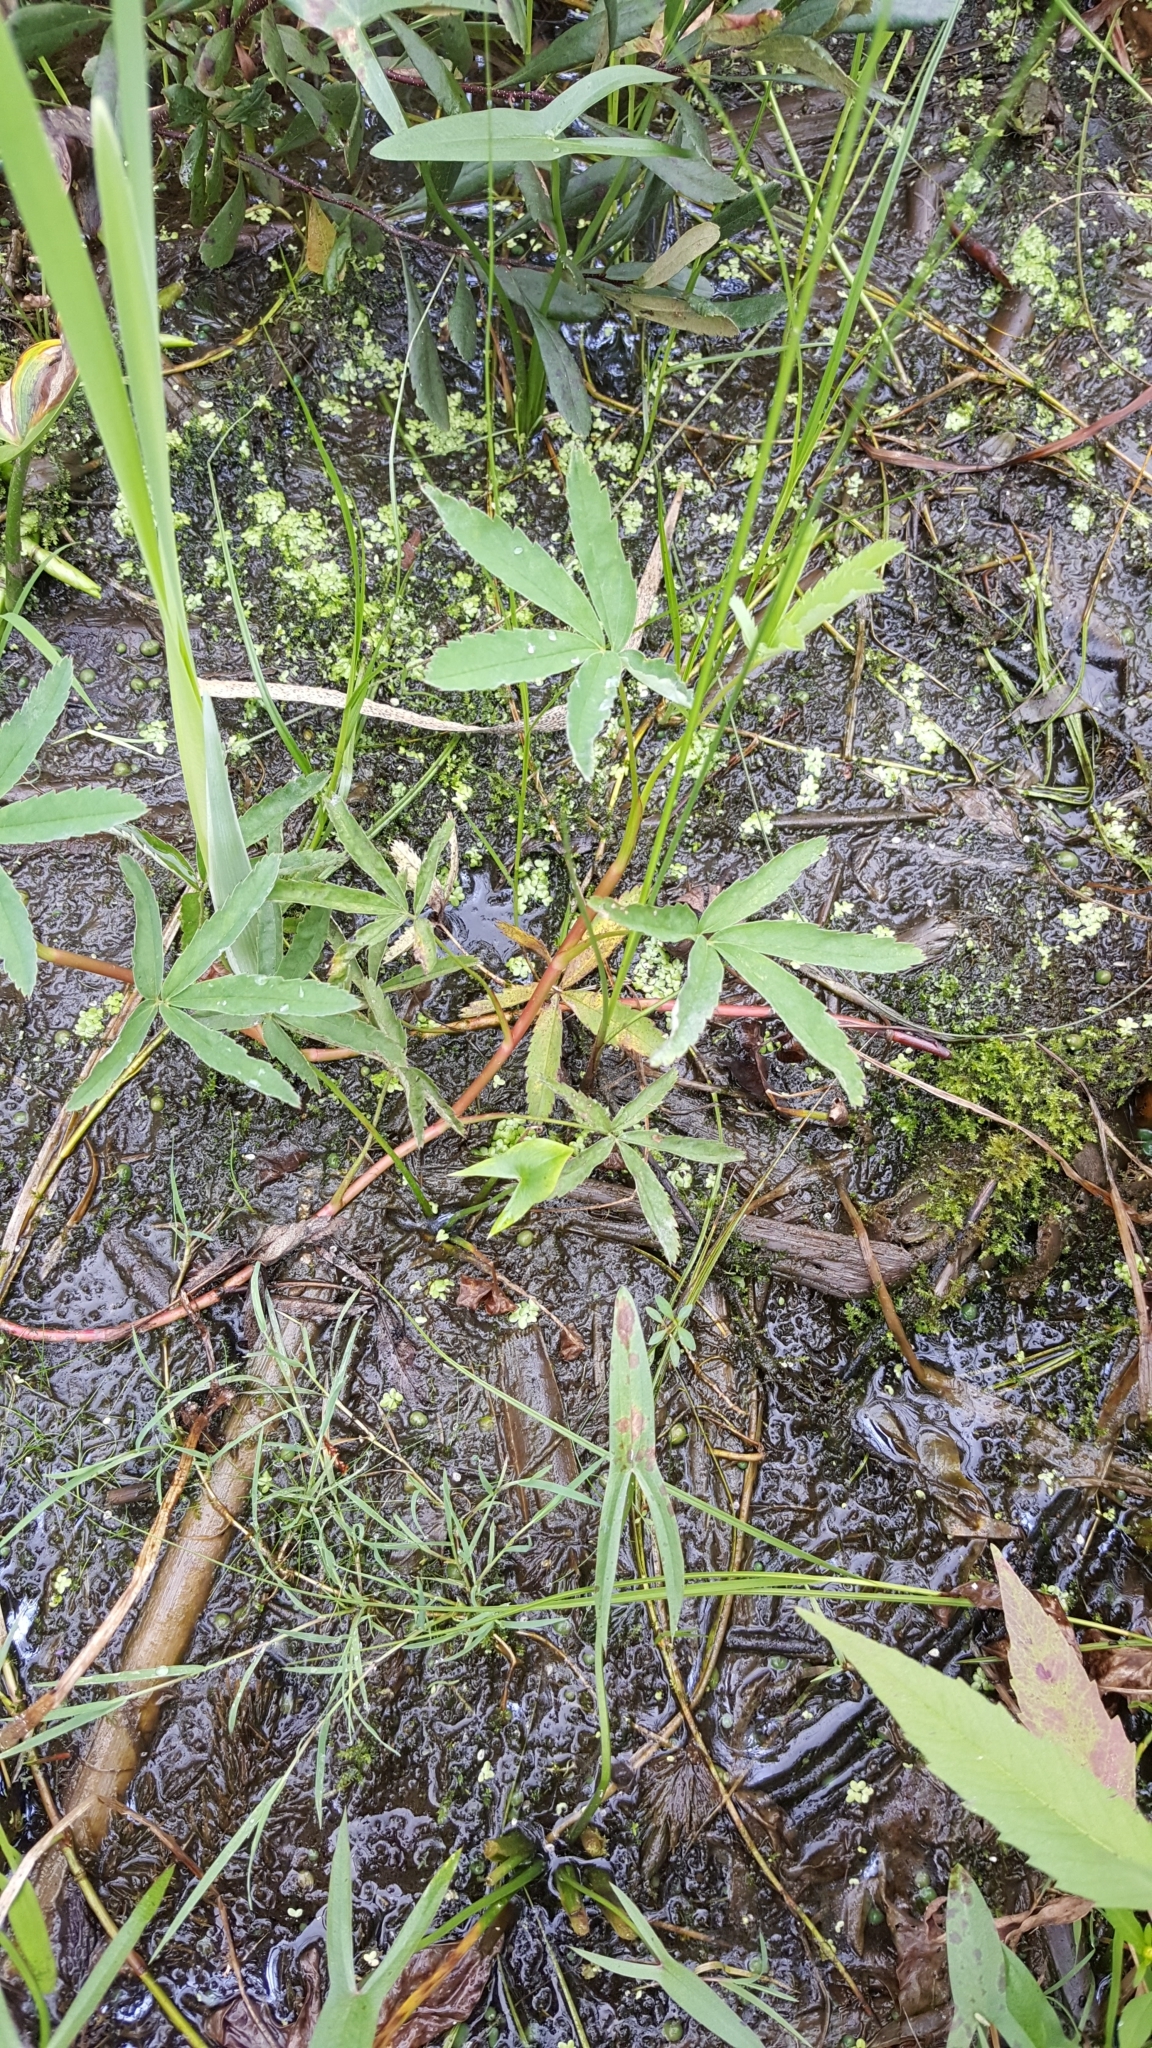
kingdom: Plantae
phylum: Tracheophyta
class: Magnoliopsida
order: Rosales
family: Rosaceae
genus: Comarum
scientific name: Comarum palustre
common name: Marsh cinquefoil
